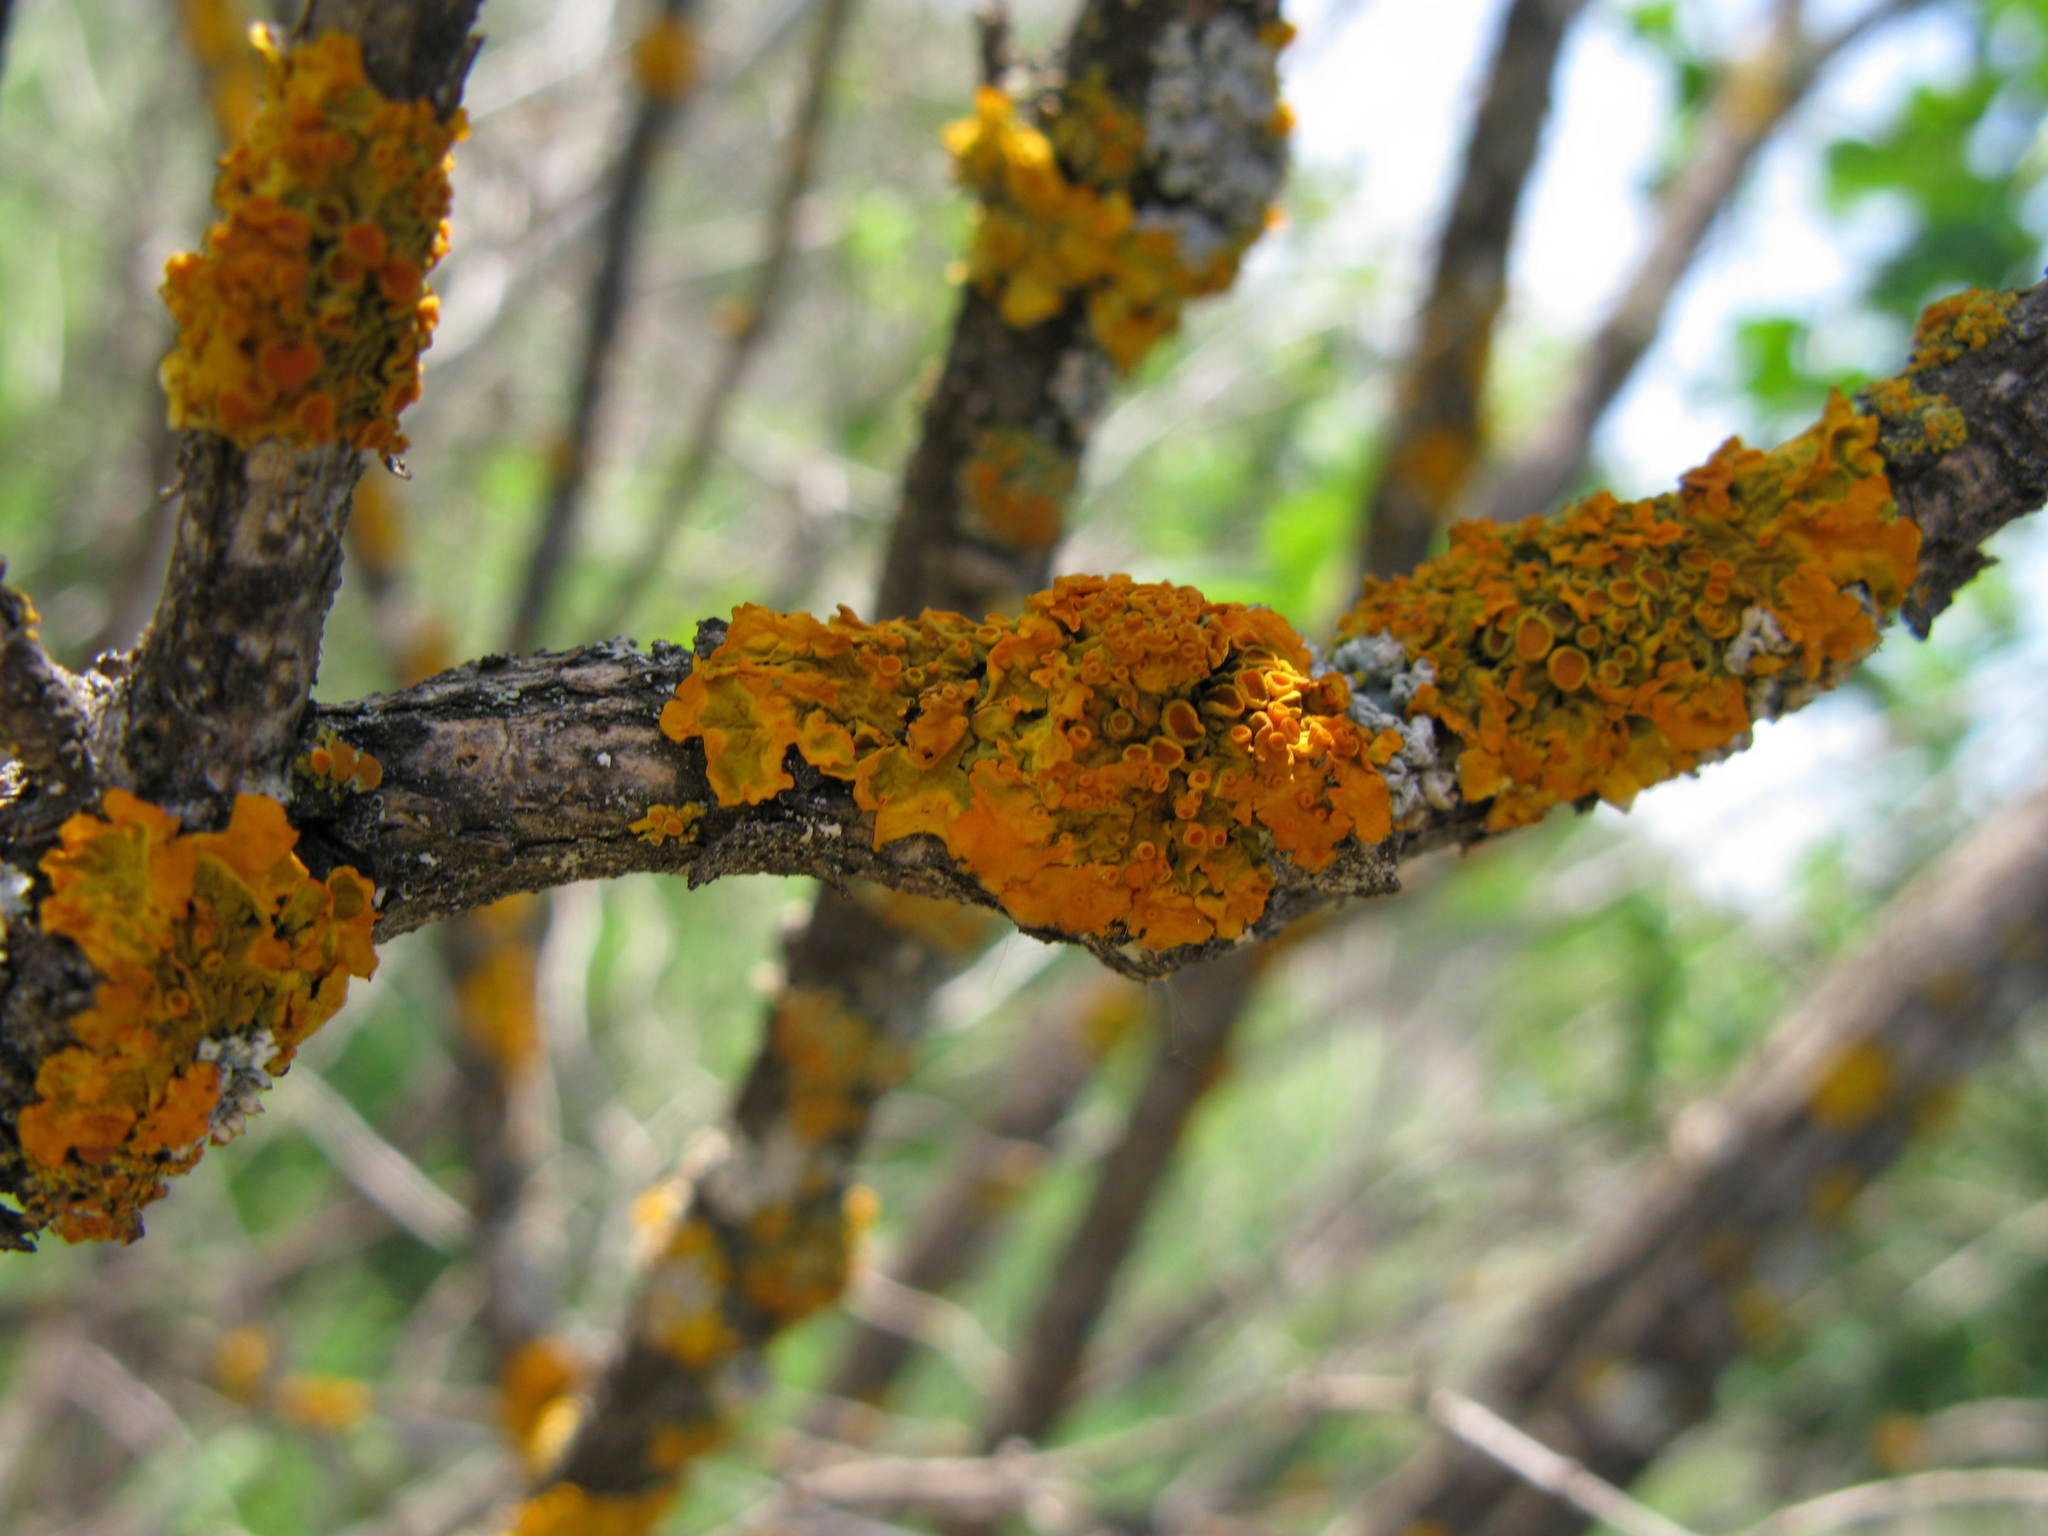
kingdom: Fungi
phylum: Ascomycota
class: Lecanoromycetes
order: Teloschistales
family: Teloschistaceae
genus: Xanthoria
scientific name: Xanthoria parietina
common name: Common orange lichen
